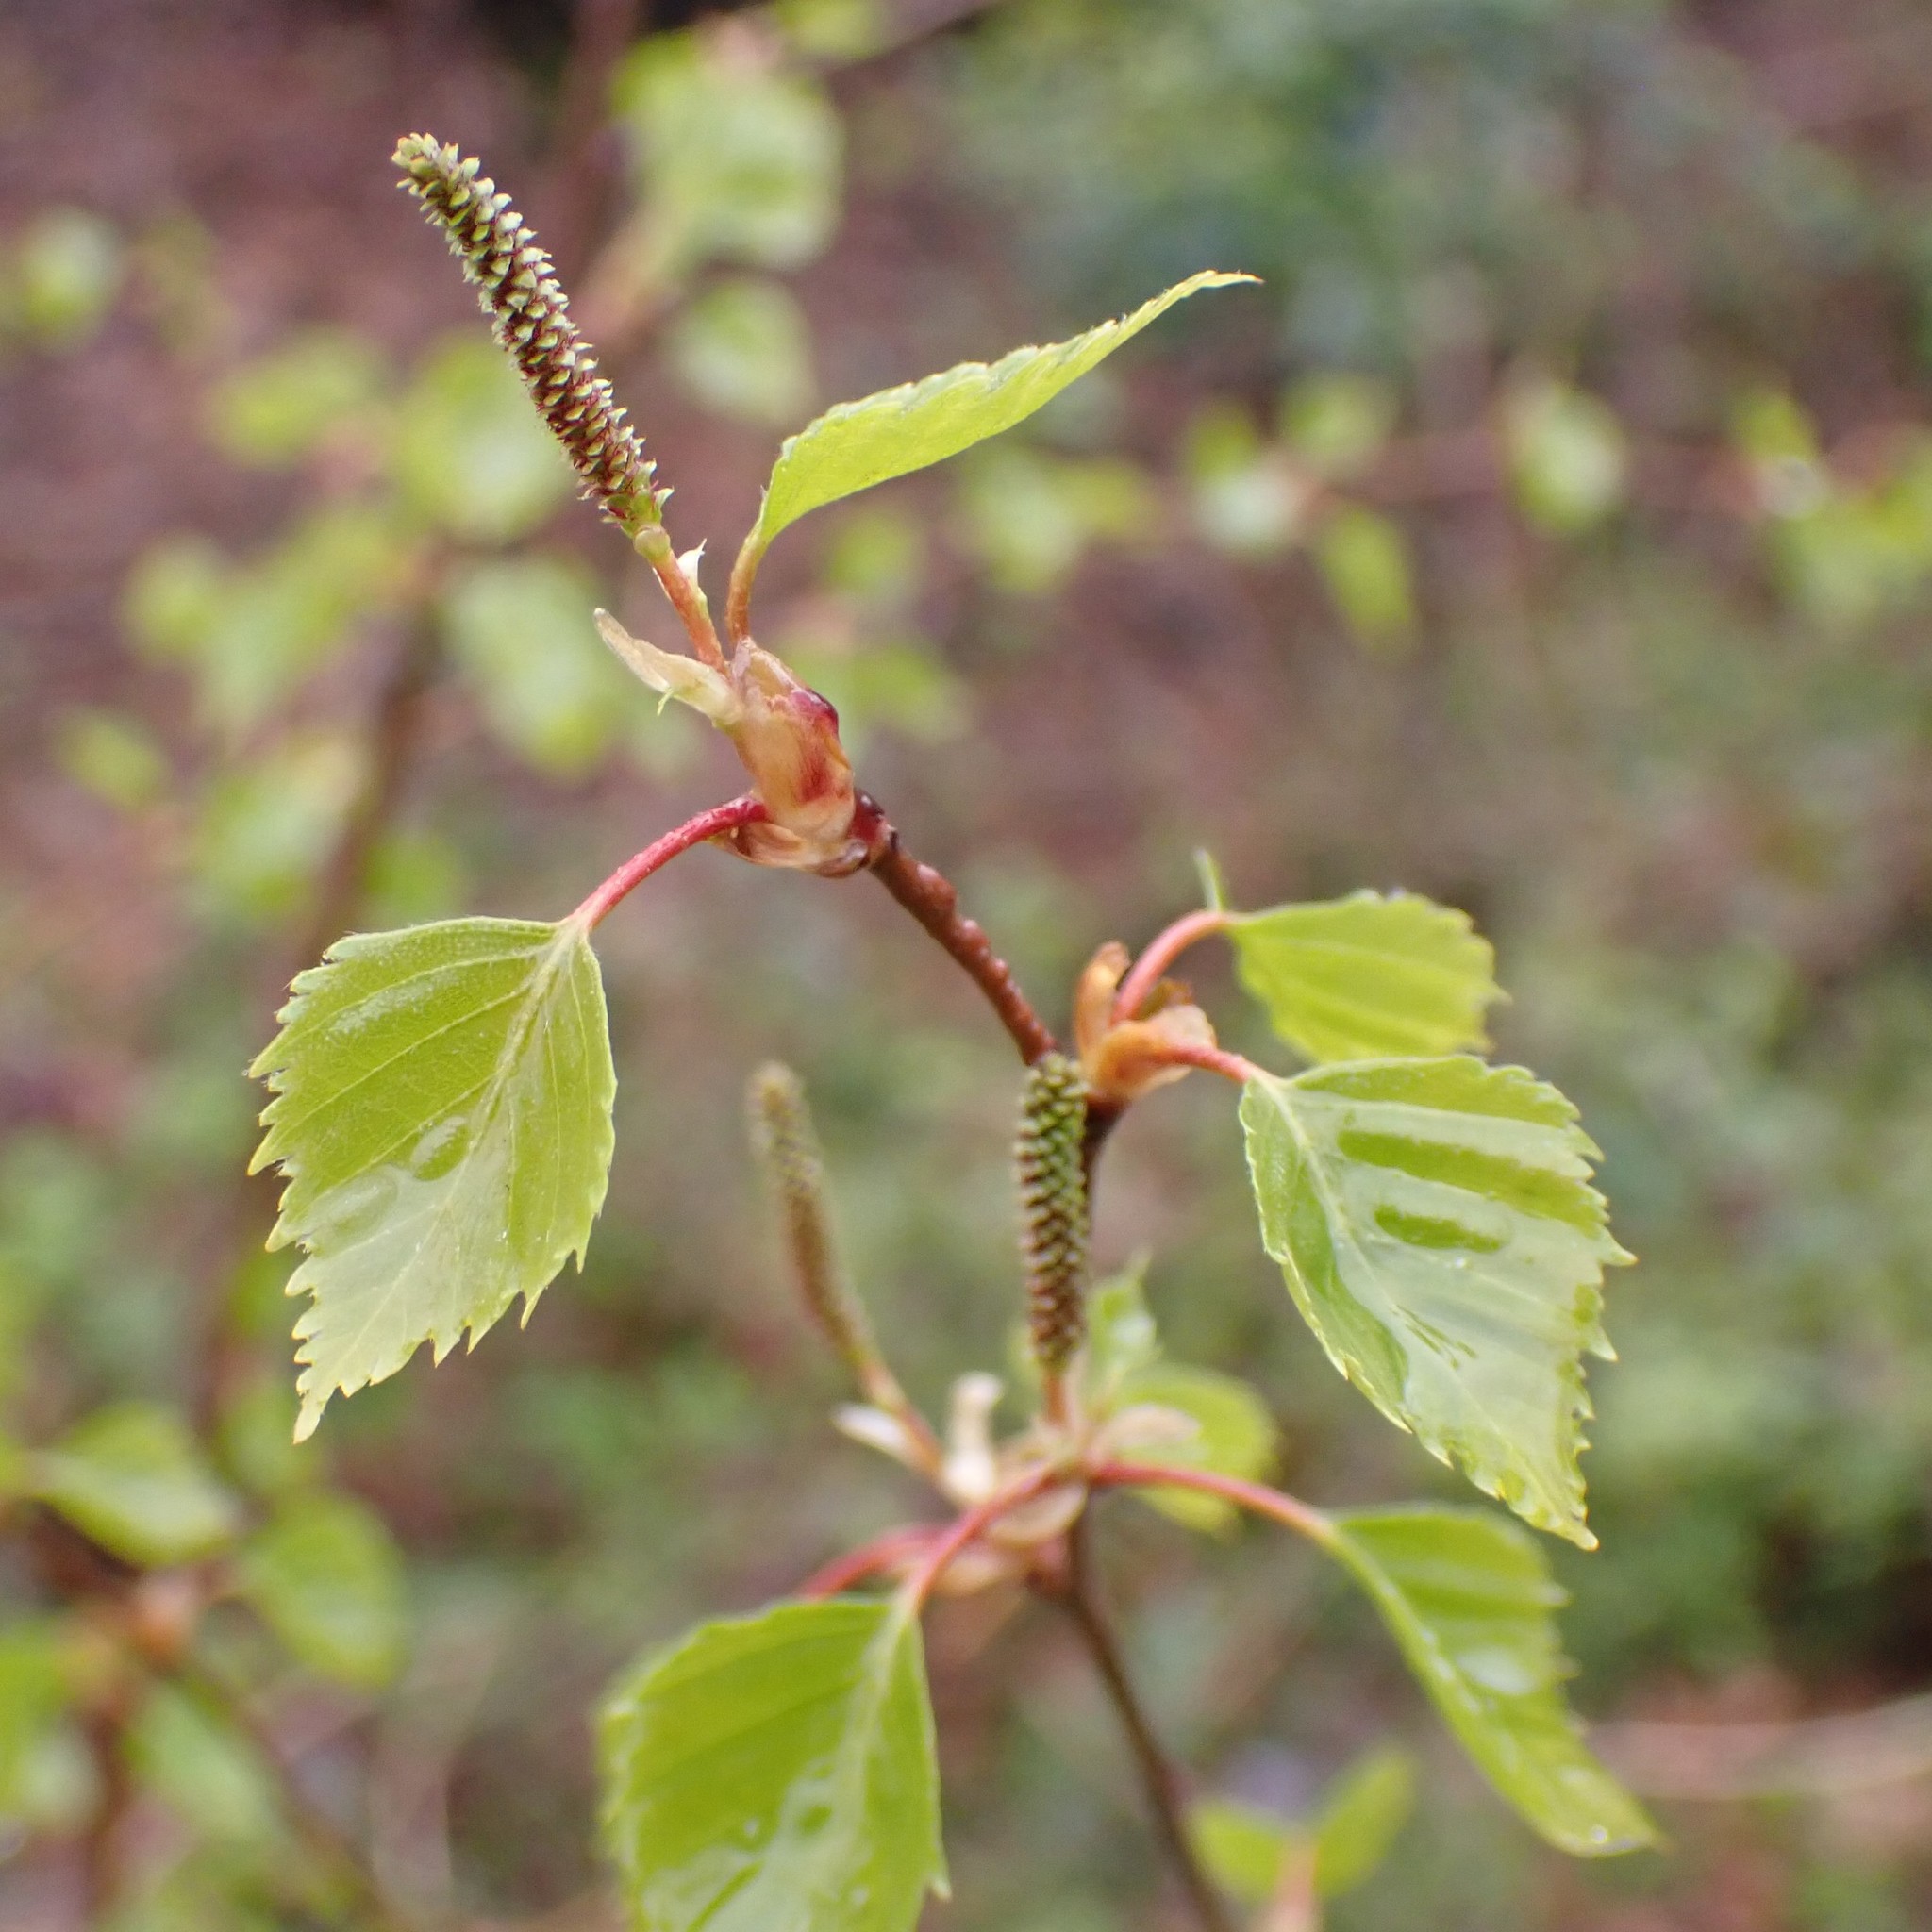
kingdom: Plantae
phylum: Tracheophyta
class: Magnoliopsida
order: Fagales
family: Betulaceae
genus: Betula
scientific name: Betula pendula
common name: Silver birch
